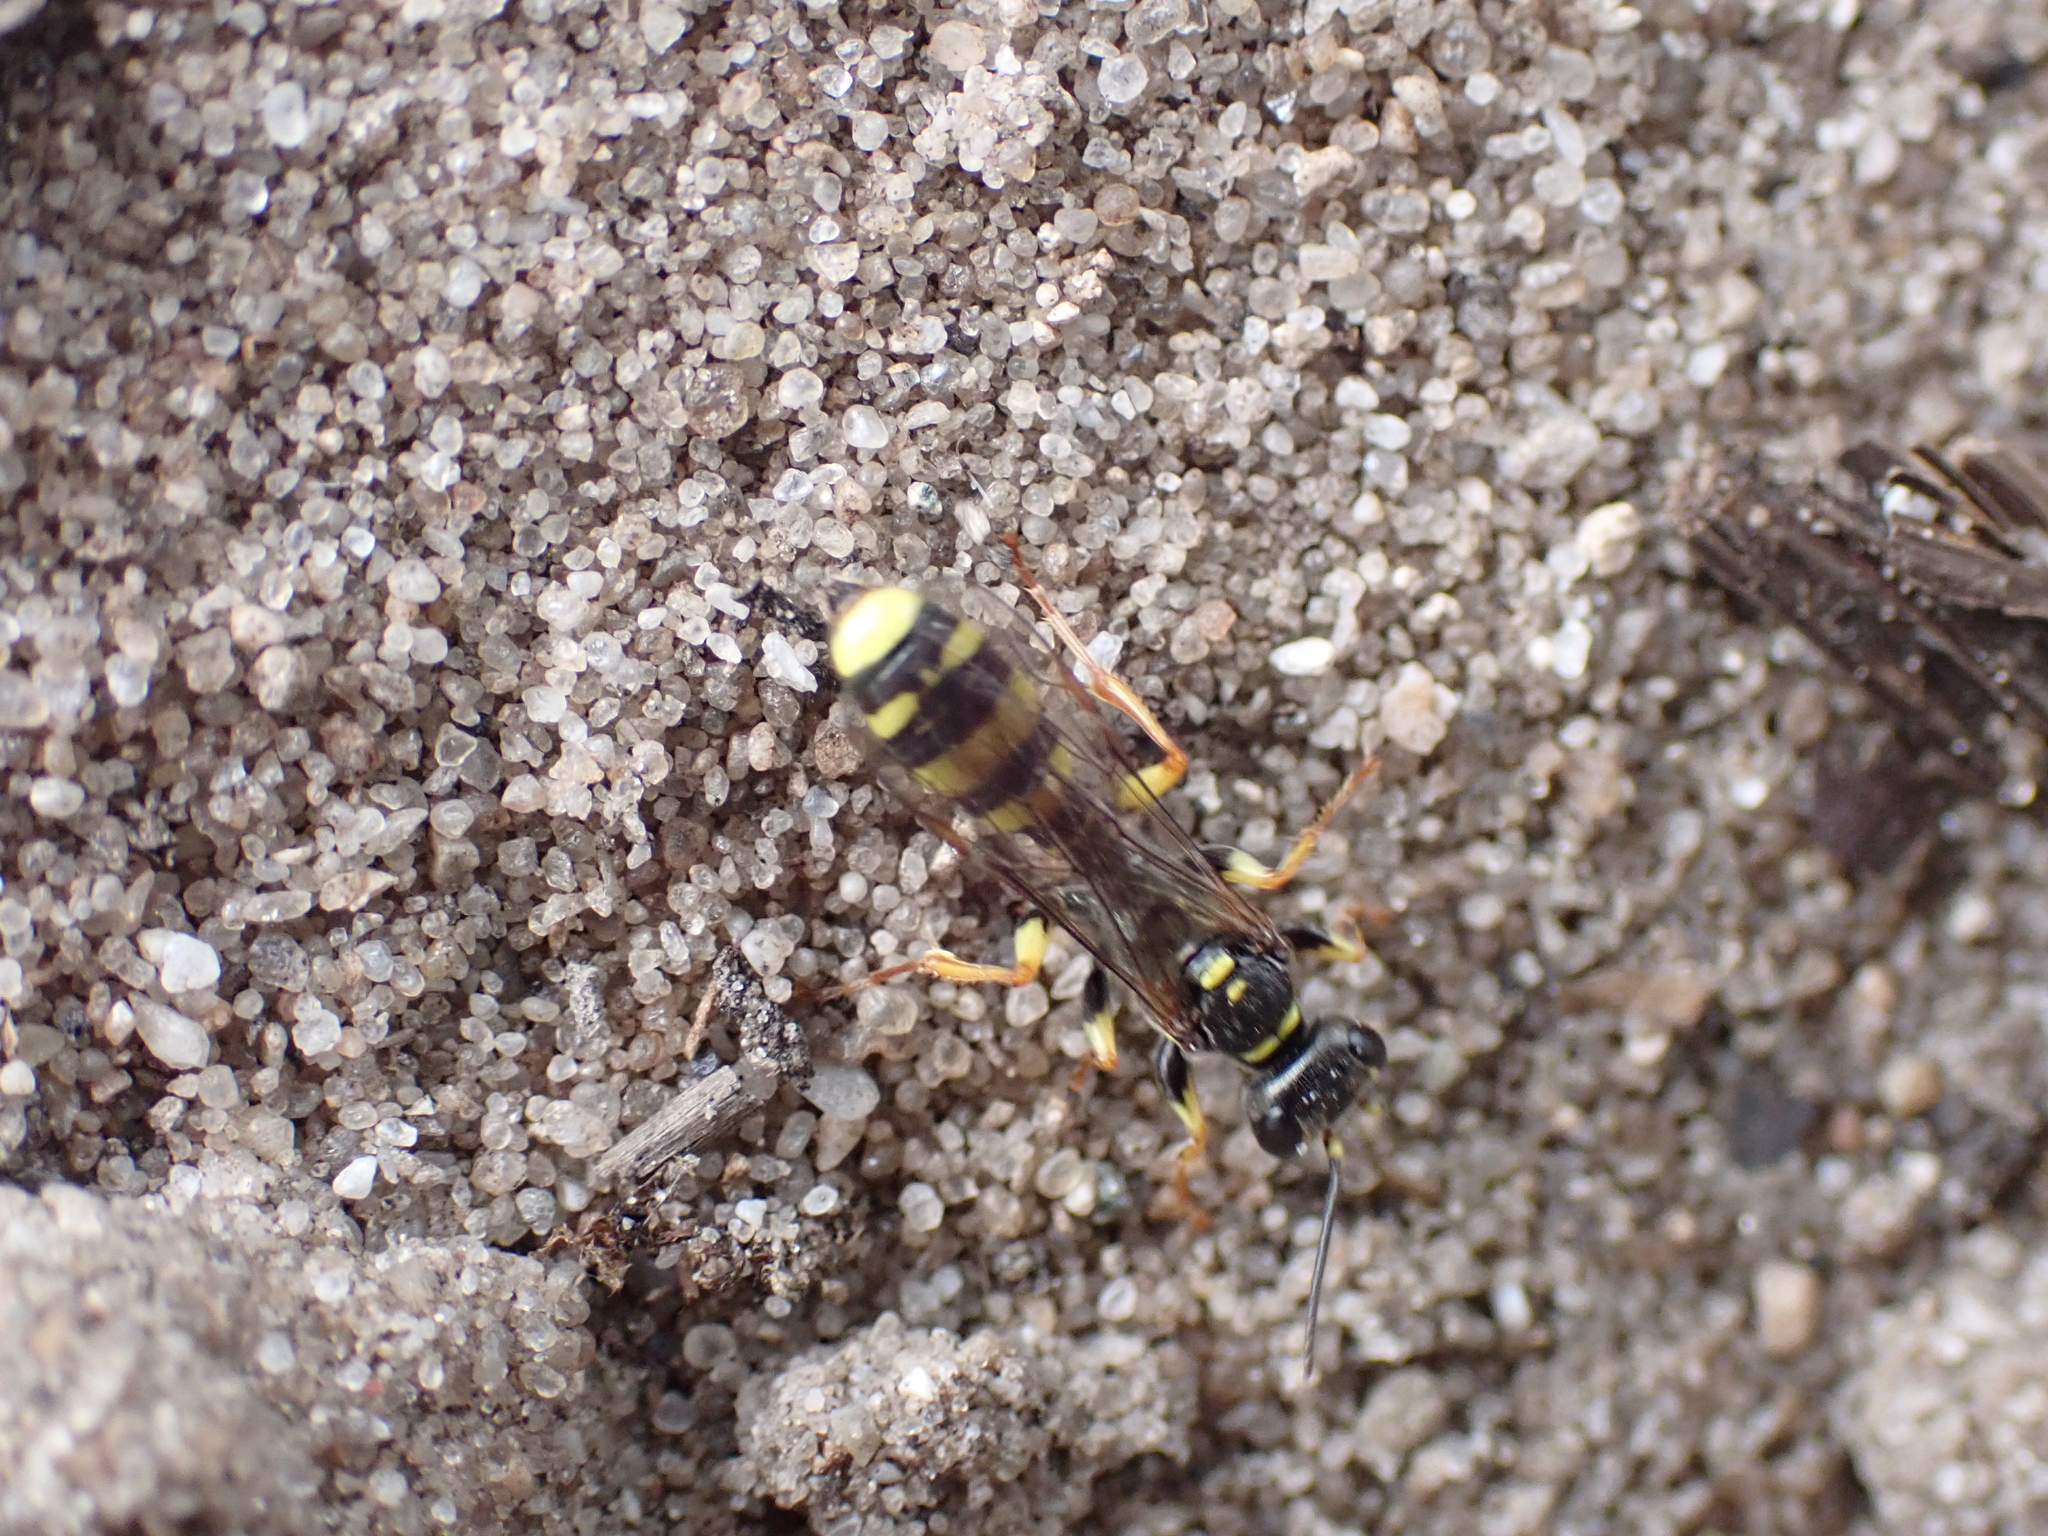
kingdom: Animalia
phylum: Arthropoda
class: Insecta
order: Hymenoptera
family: Crabronidae
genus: Mellinus
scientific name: Mellinus arvensis
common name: Field digger wasp
